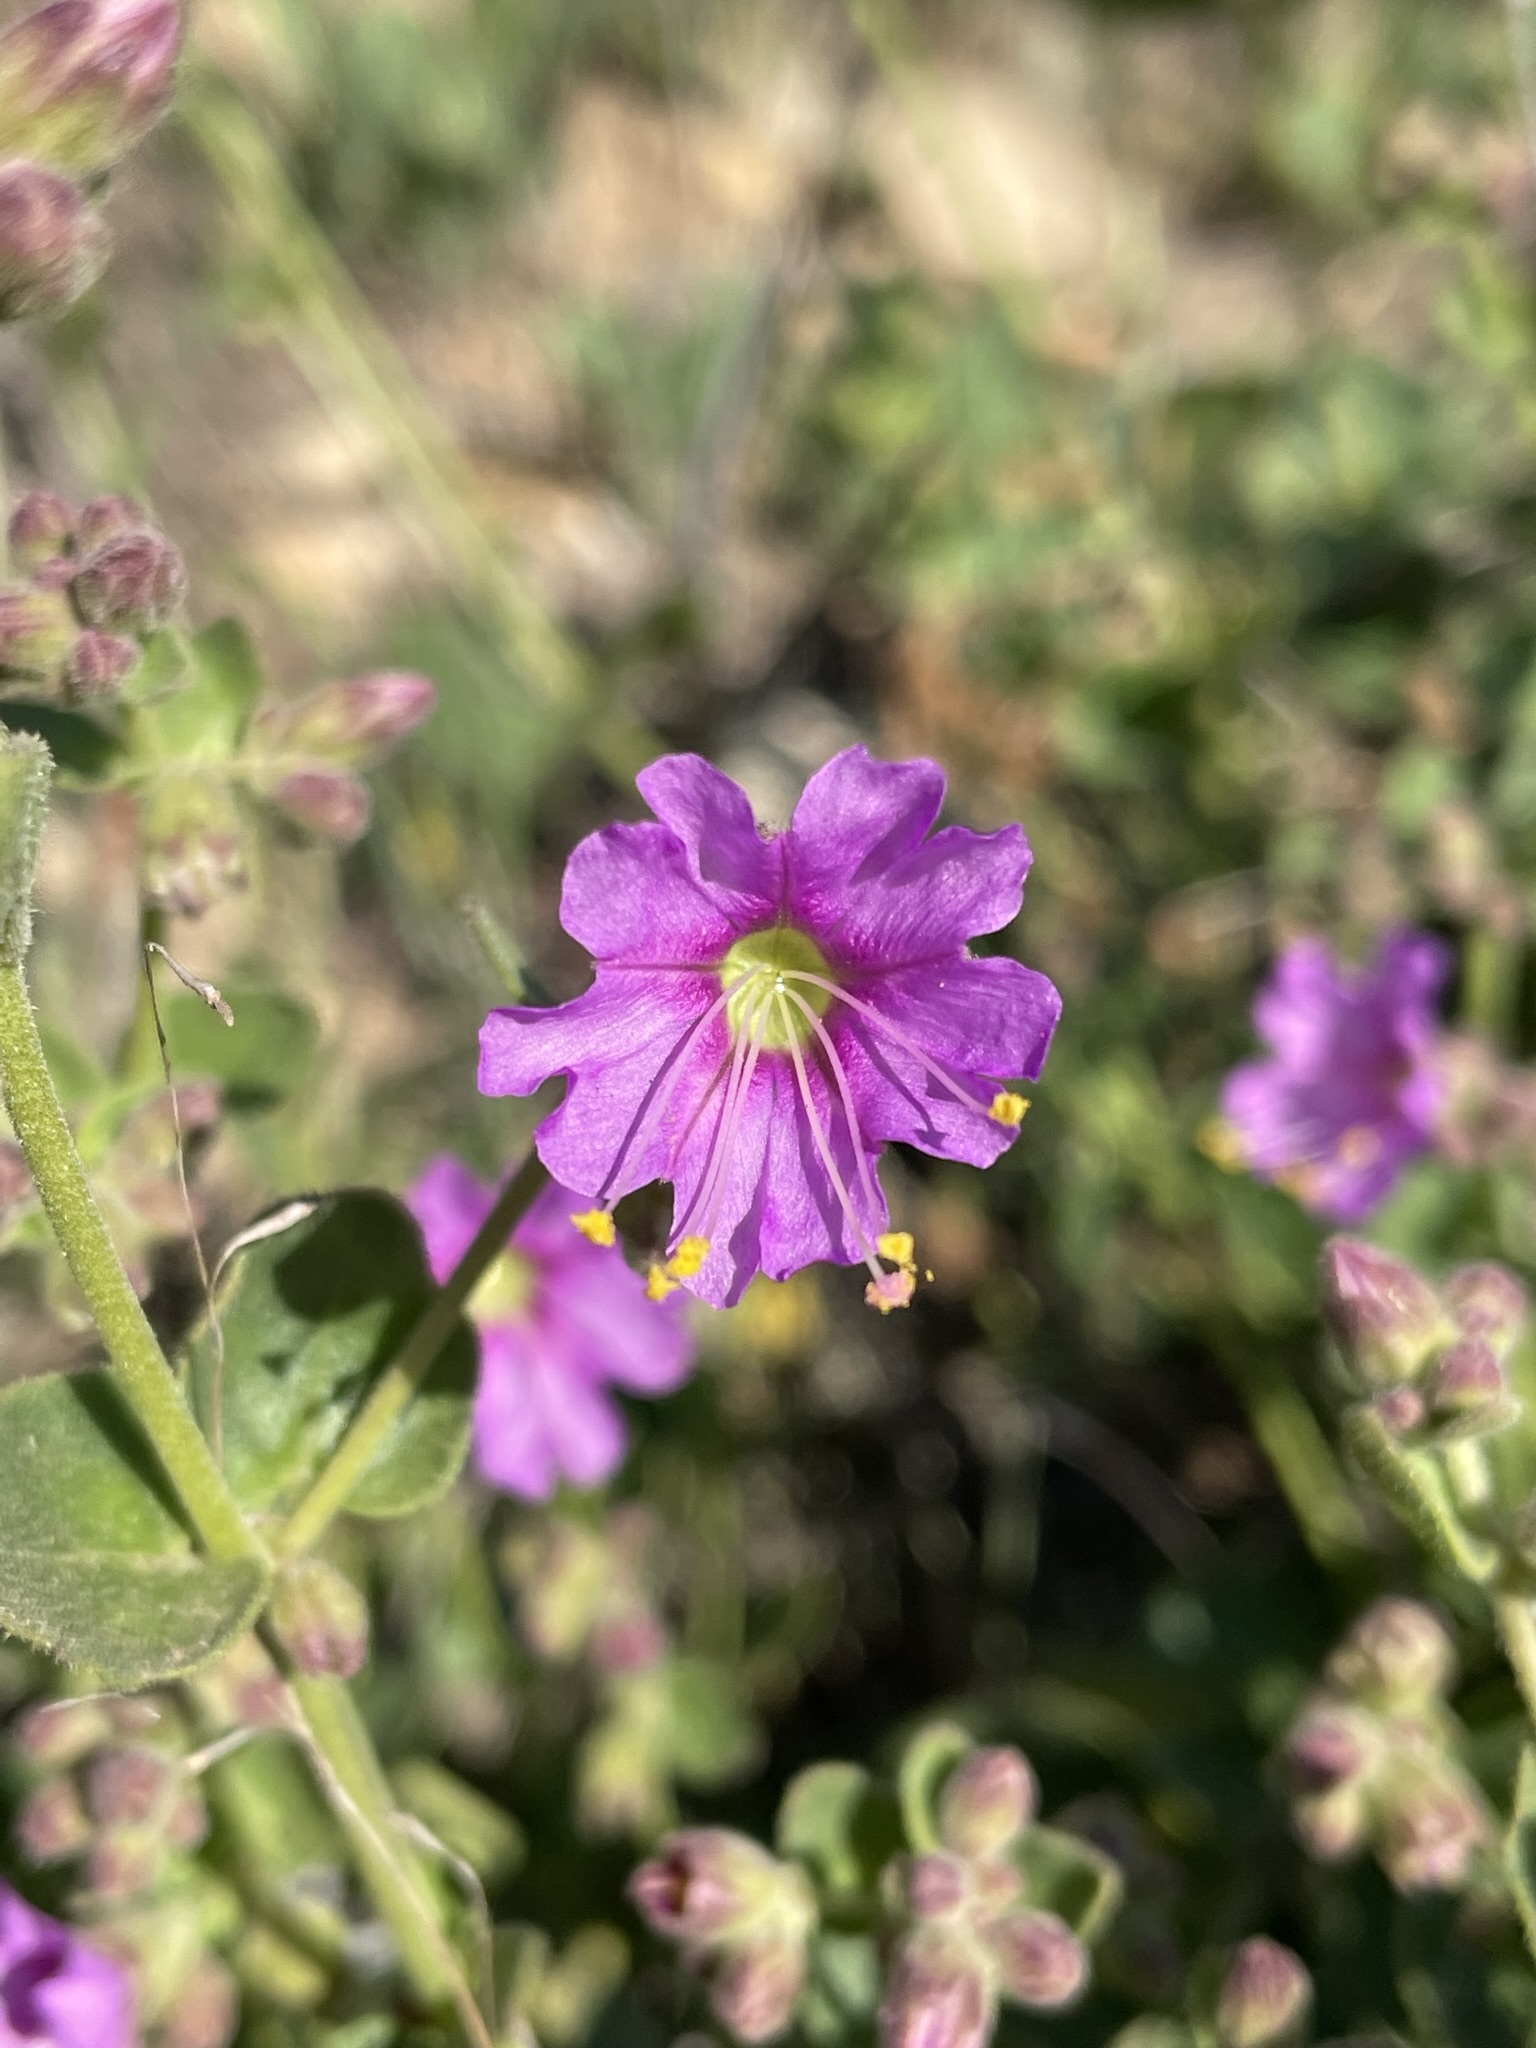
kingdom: Plantae
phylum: Tracheophyta
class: Magnoliopsida
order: Caryophyllales
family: Nyctaginaceae
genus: Mirabilis
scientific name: Mirabilis laevis
